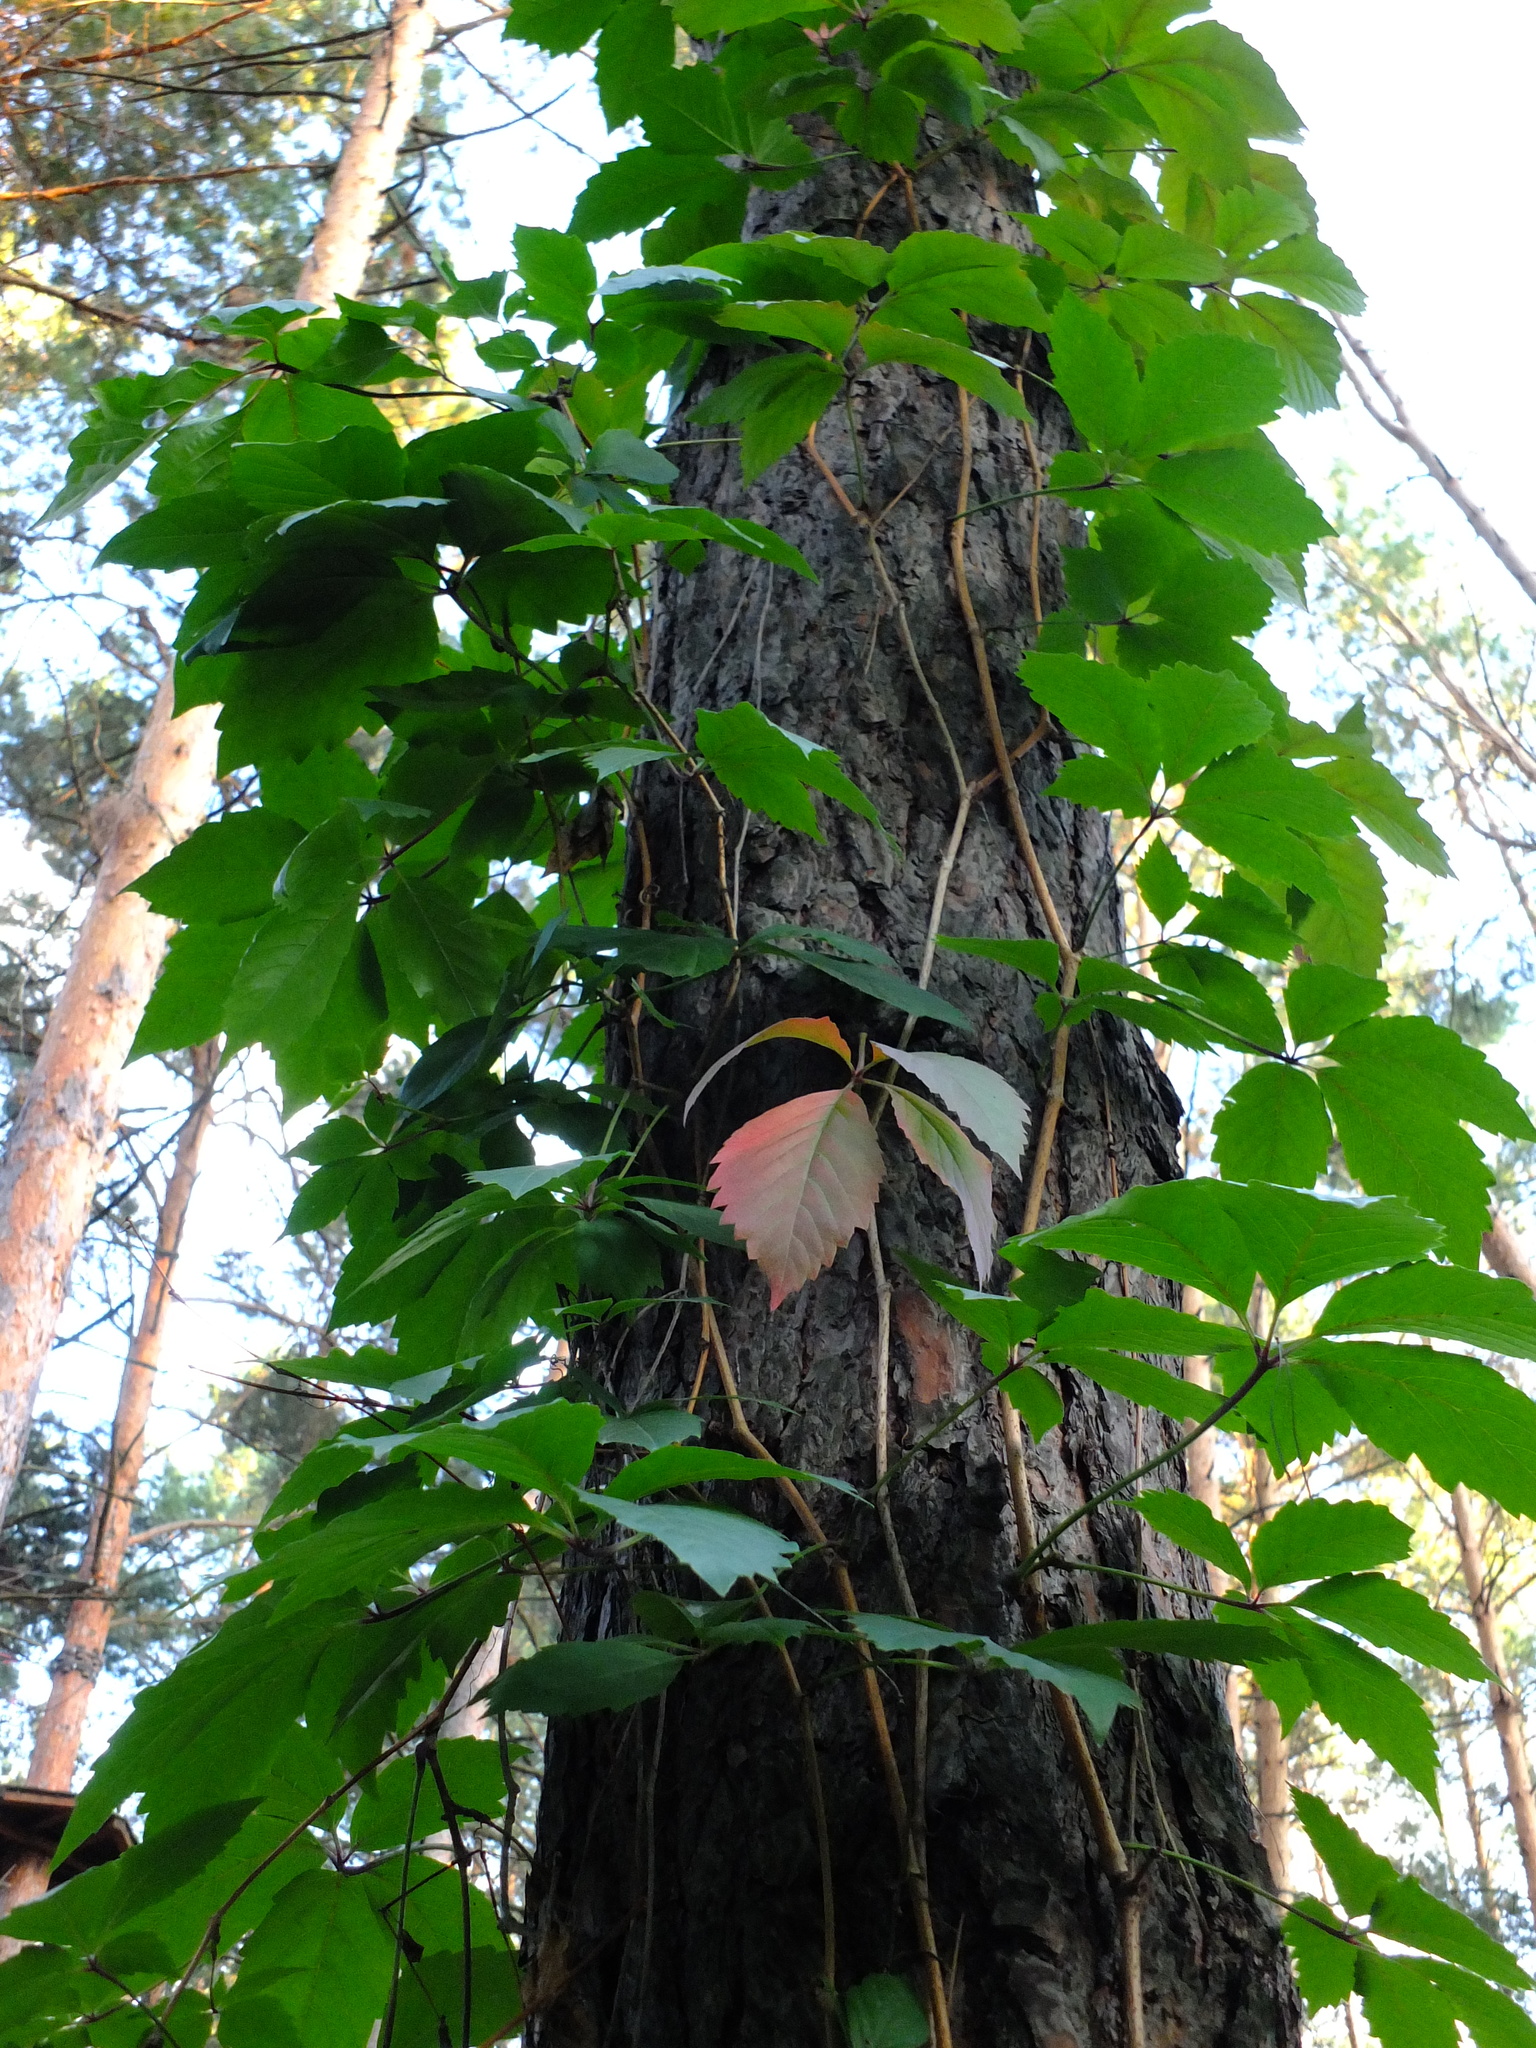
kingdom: Plantae
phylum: Tracheophyta
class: Magnoliopsida
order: Vitales
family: Vitaceae
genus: Parthenocissus
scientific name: Parthenocissus inserta
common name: False virginia-creeper
